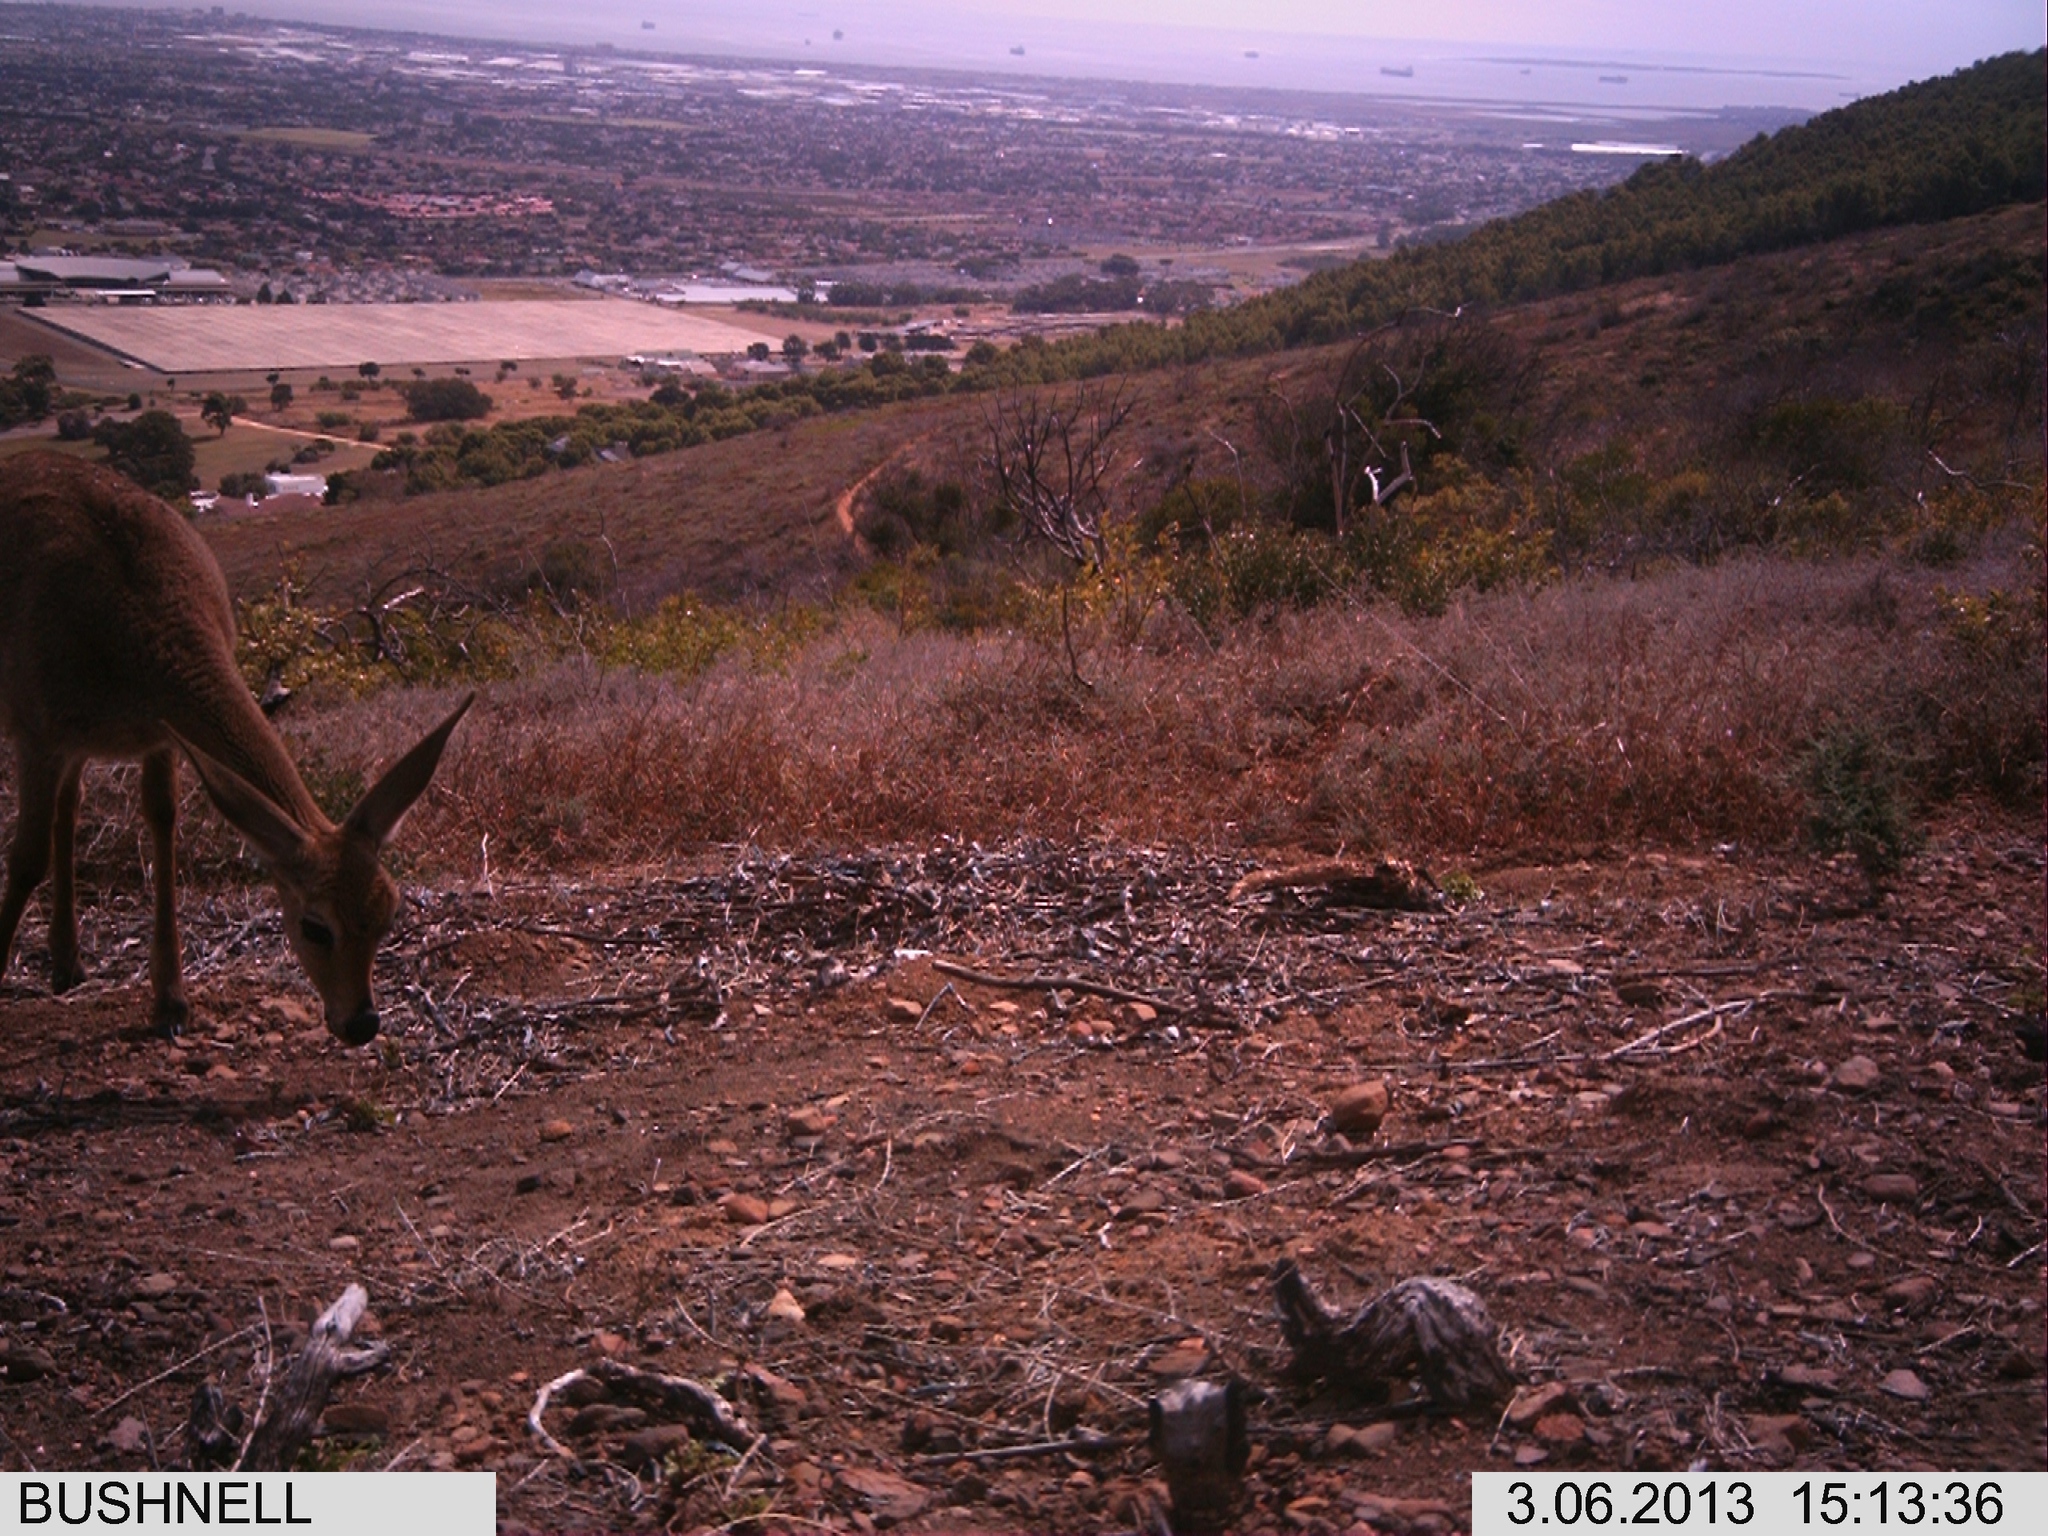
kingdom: Animalia
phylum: Chordata
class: Mammalia
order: Artiodactyla
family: Bovidae
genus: Pelea
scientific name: Pelea capreolus
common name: Common rhebok
